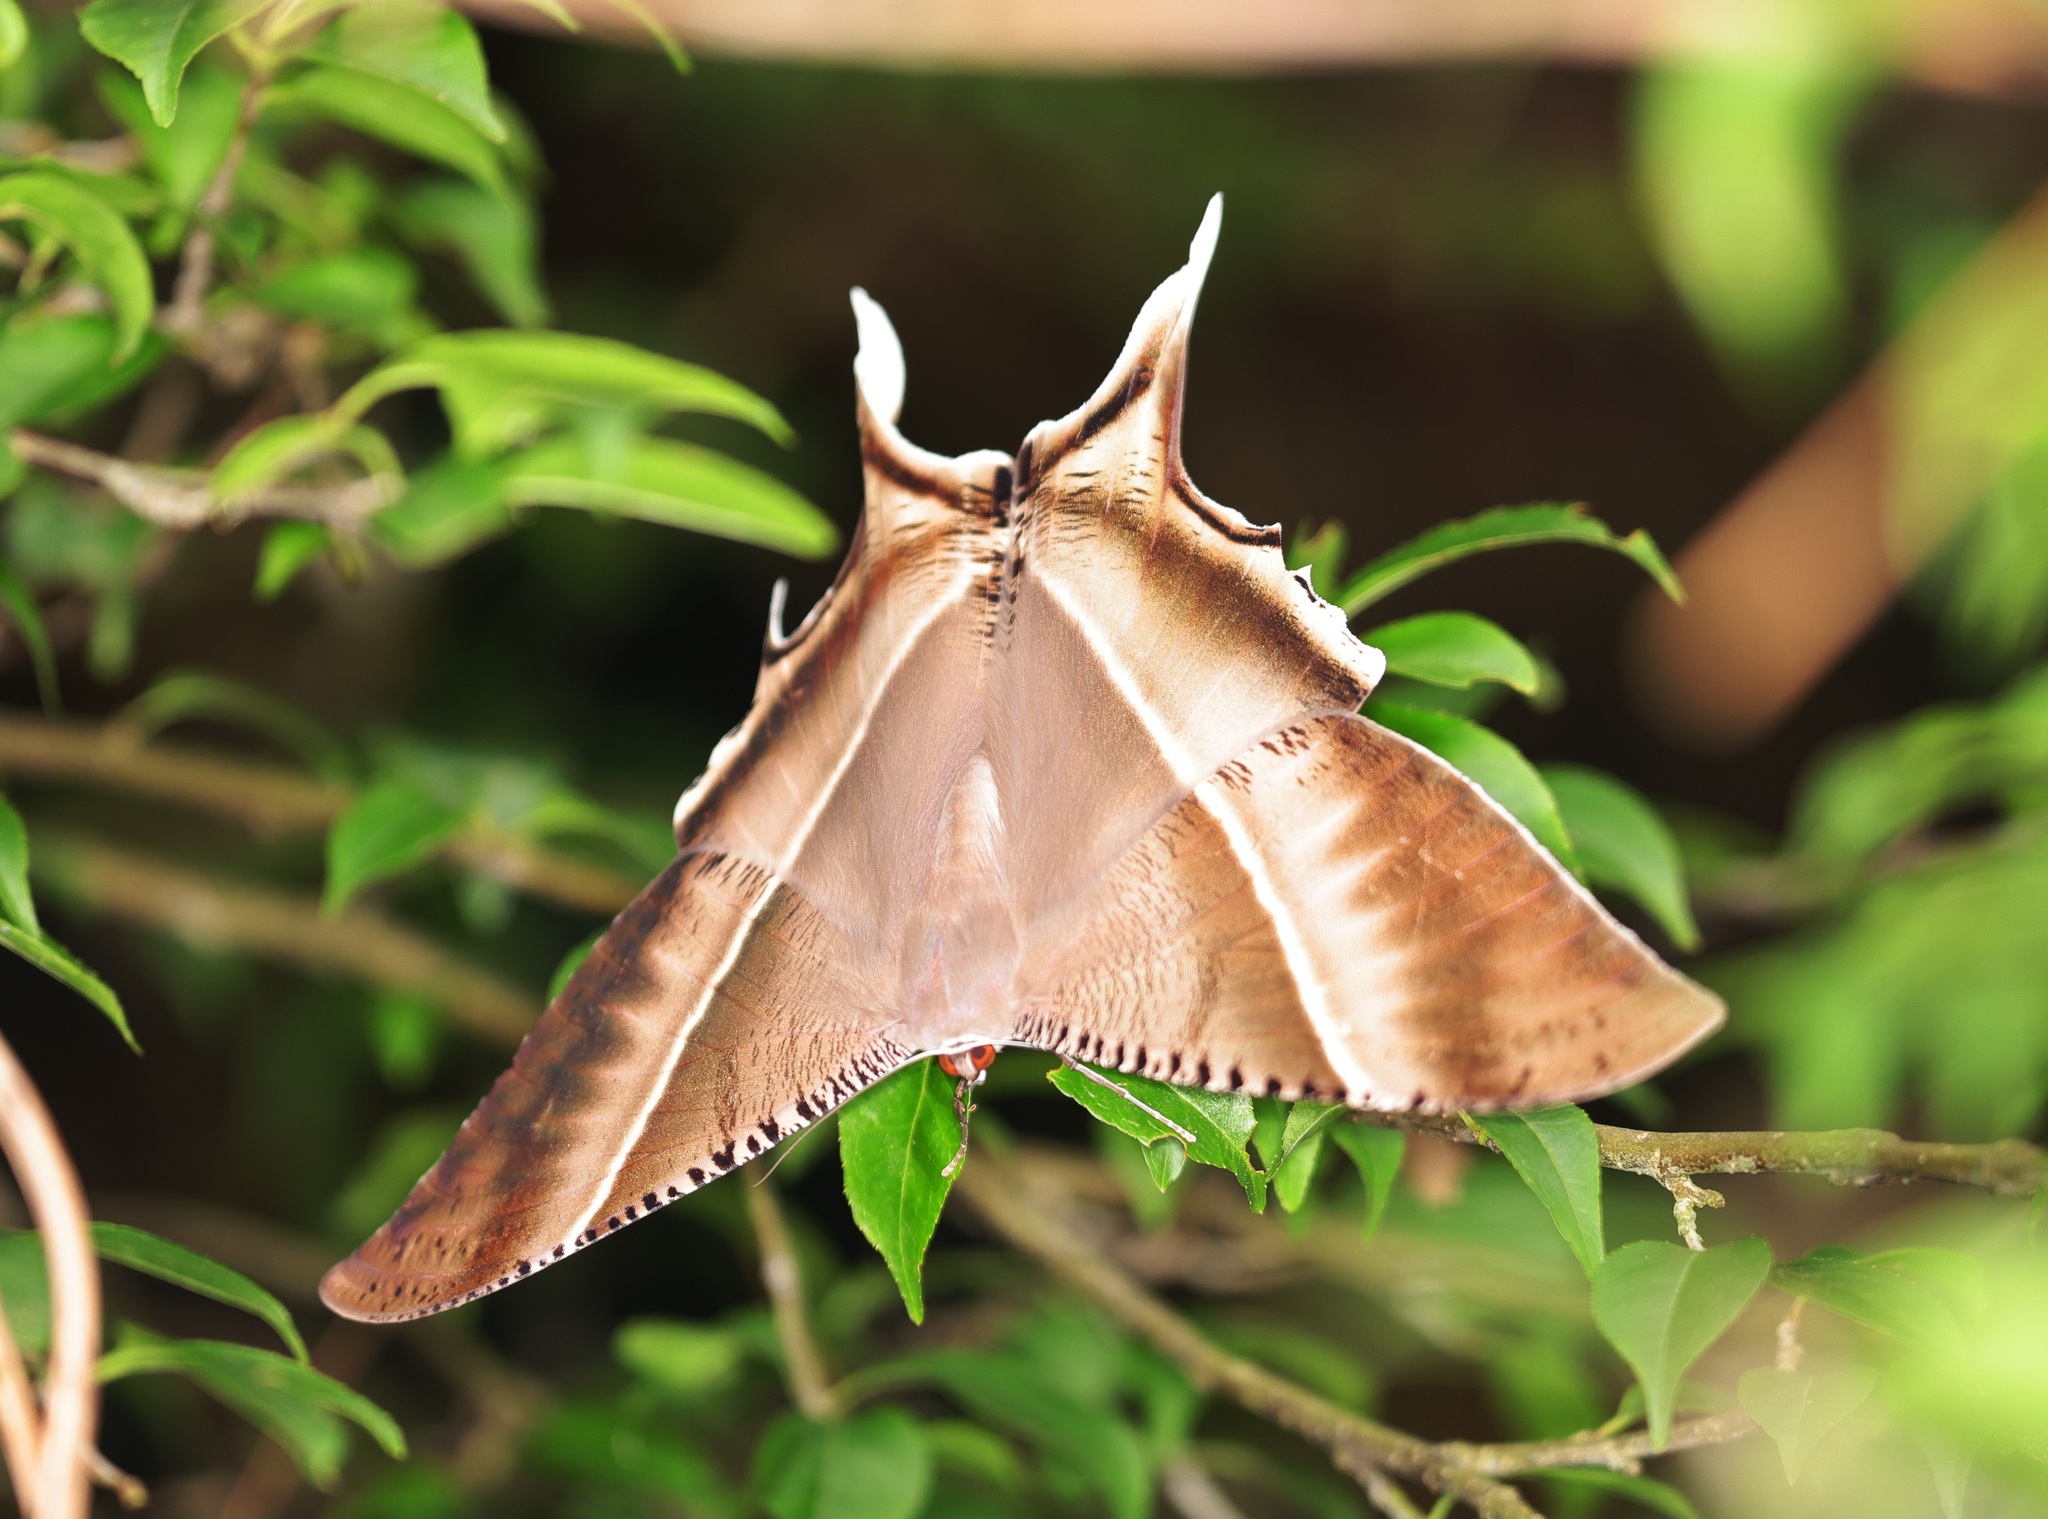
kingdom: Animalia
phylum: Arthropoda
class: Insecta
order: Lepidoptera
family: Uraniidae
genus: Lyssa
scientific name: Lyssa zampa
